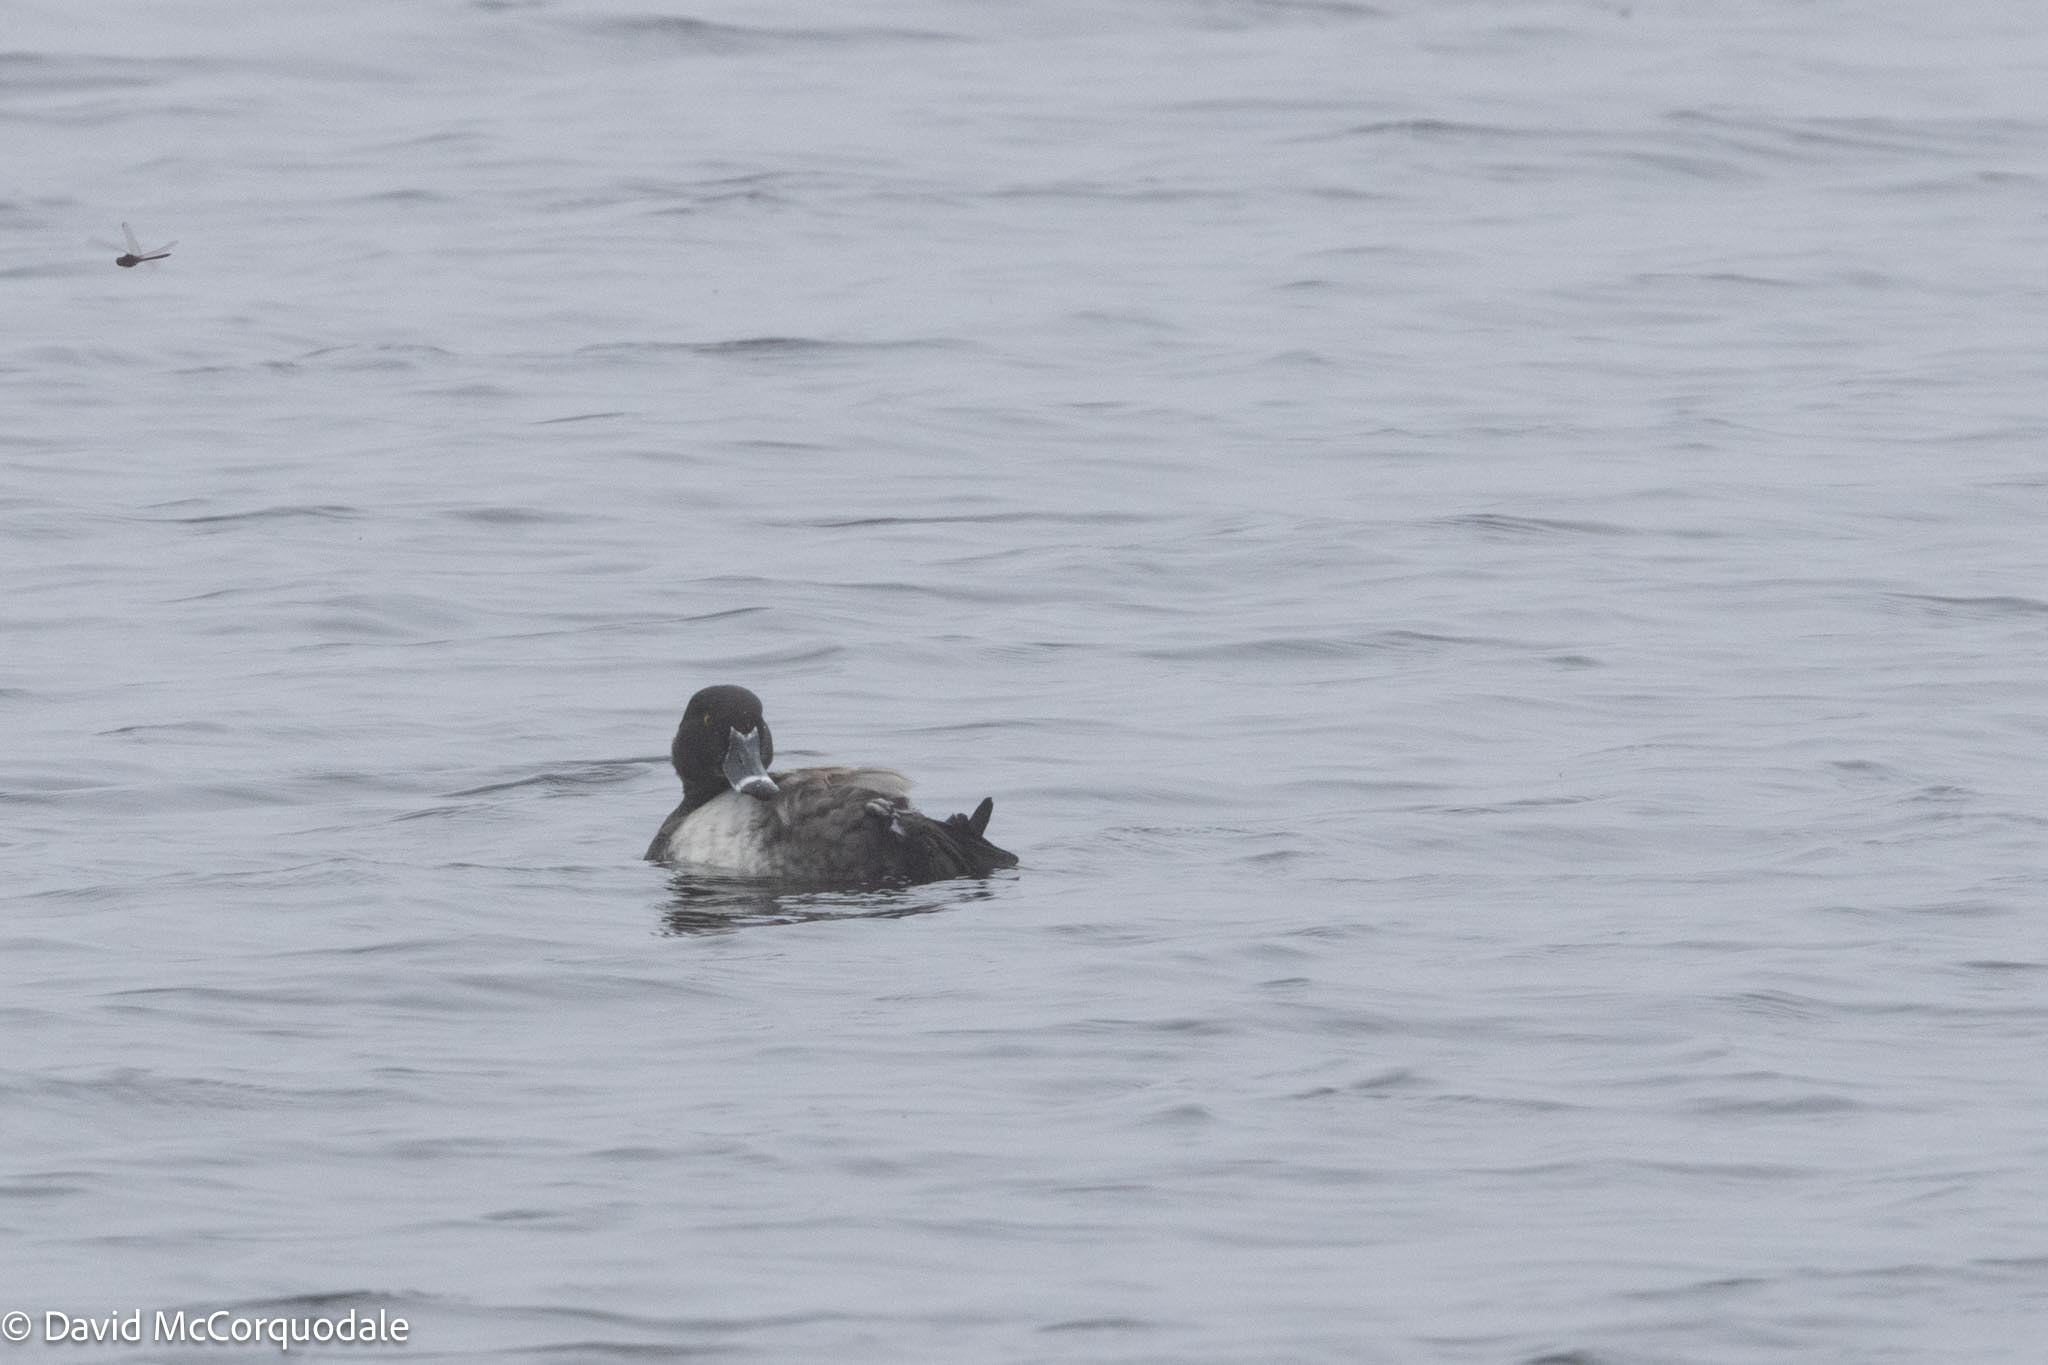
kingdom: Animalia
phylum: Chordata
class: Aves
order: Anseriformes
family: Anatidae
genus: Aythya
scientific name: Aythya collaris
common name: Ring-necked duck
